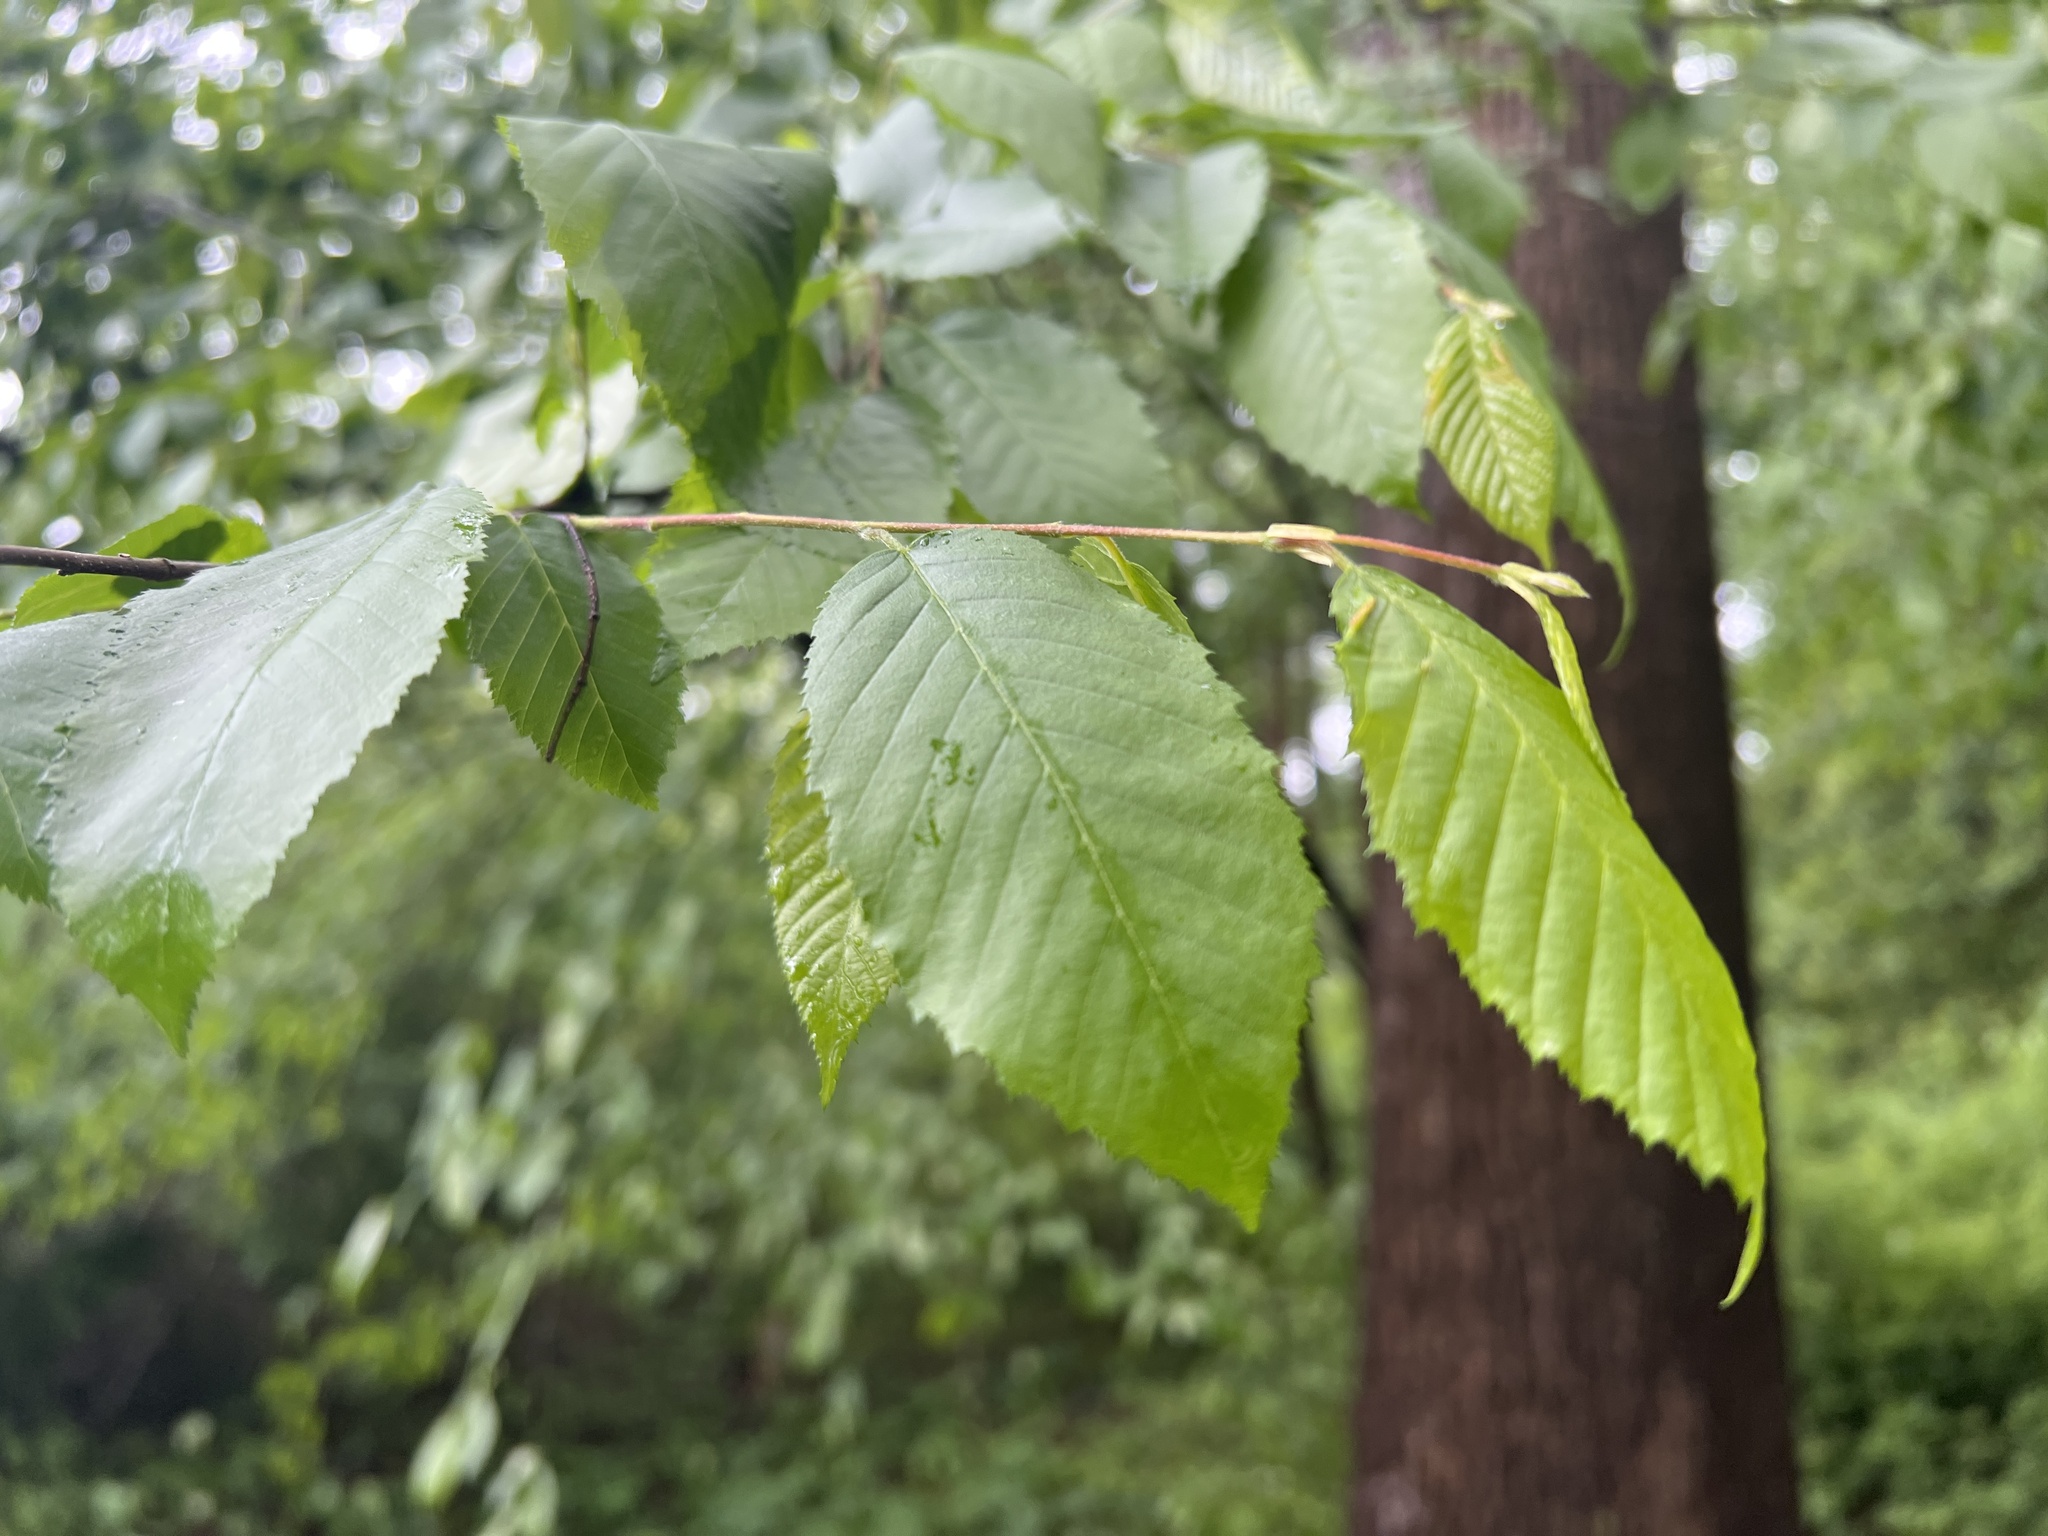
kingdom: Plantae
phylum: Tracheophyta
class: Magnoliopsida
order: Fagales
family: Betulaceae
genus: Carpinus
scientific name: Carpinus caroliniana
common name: American hornbeam
